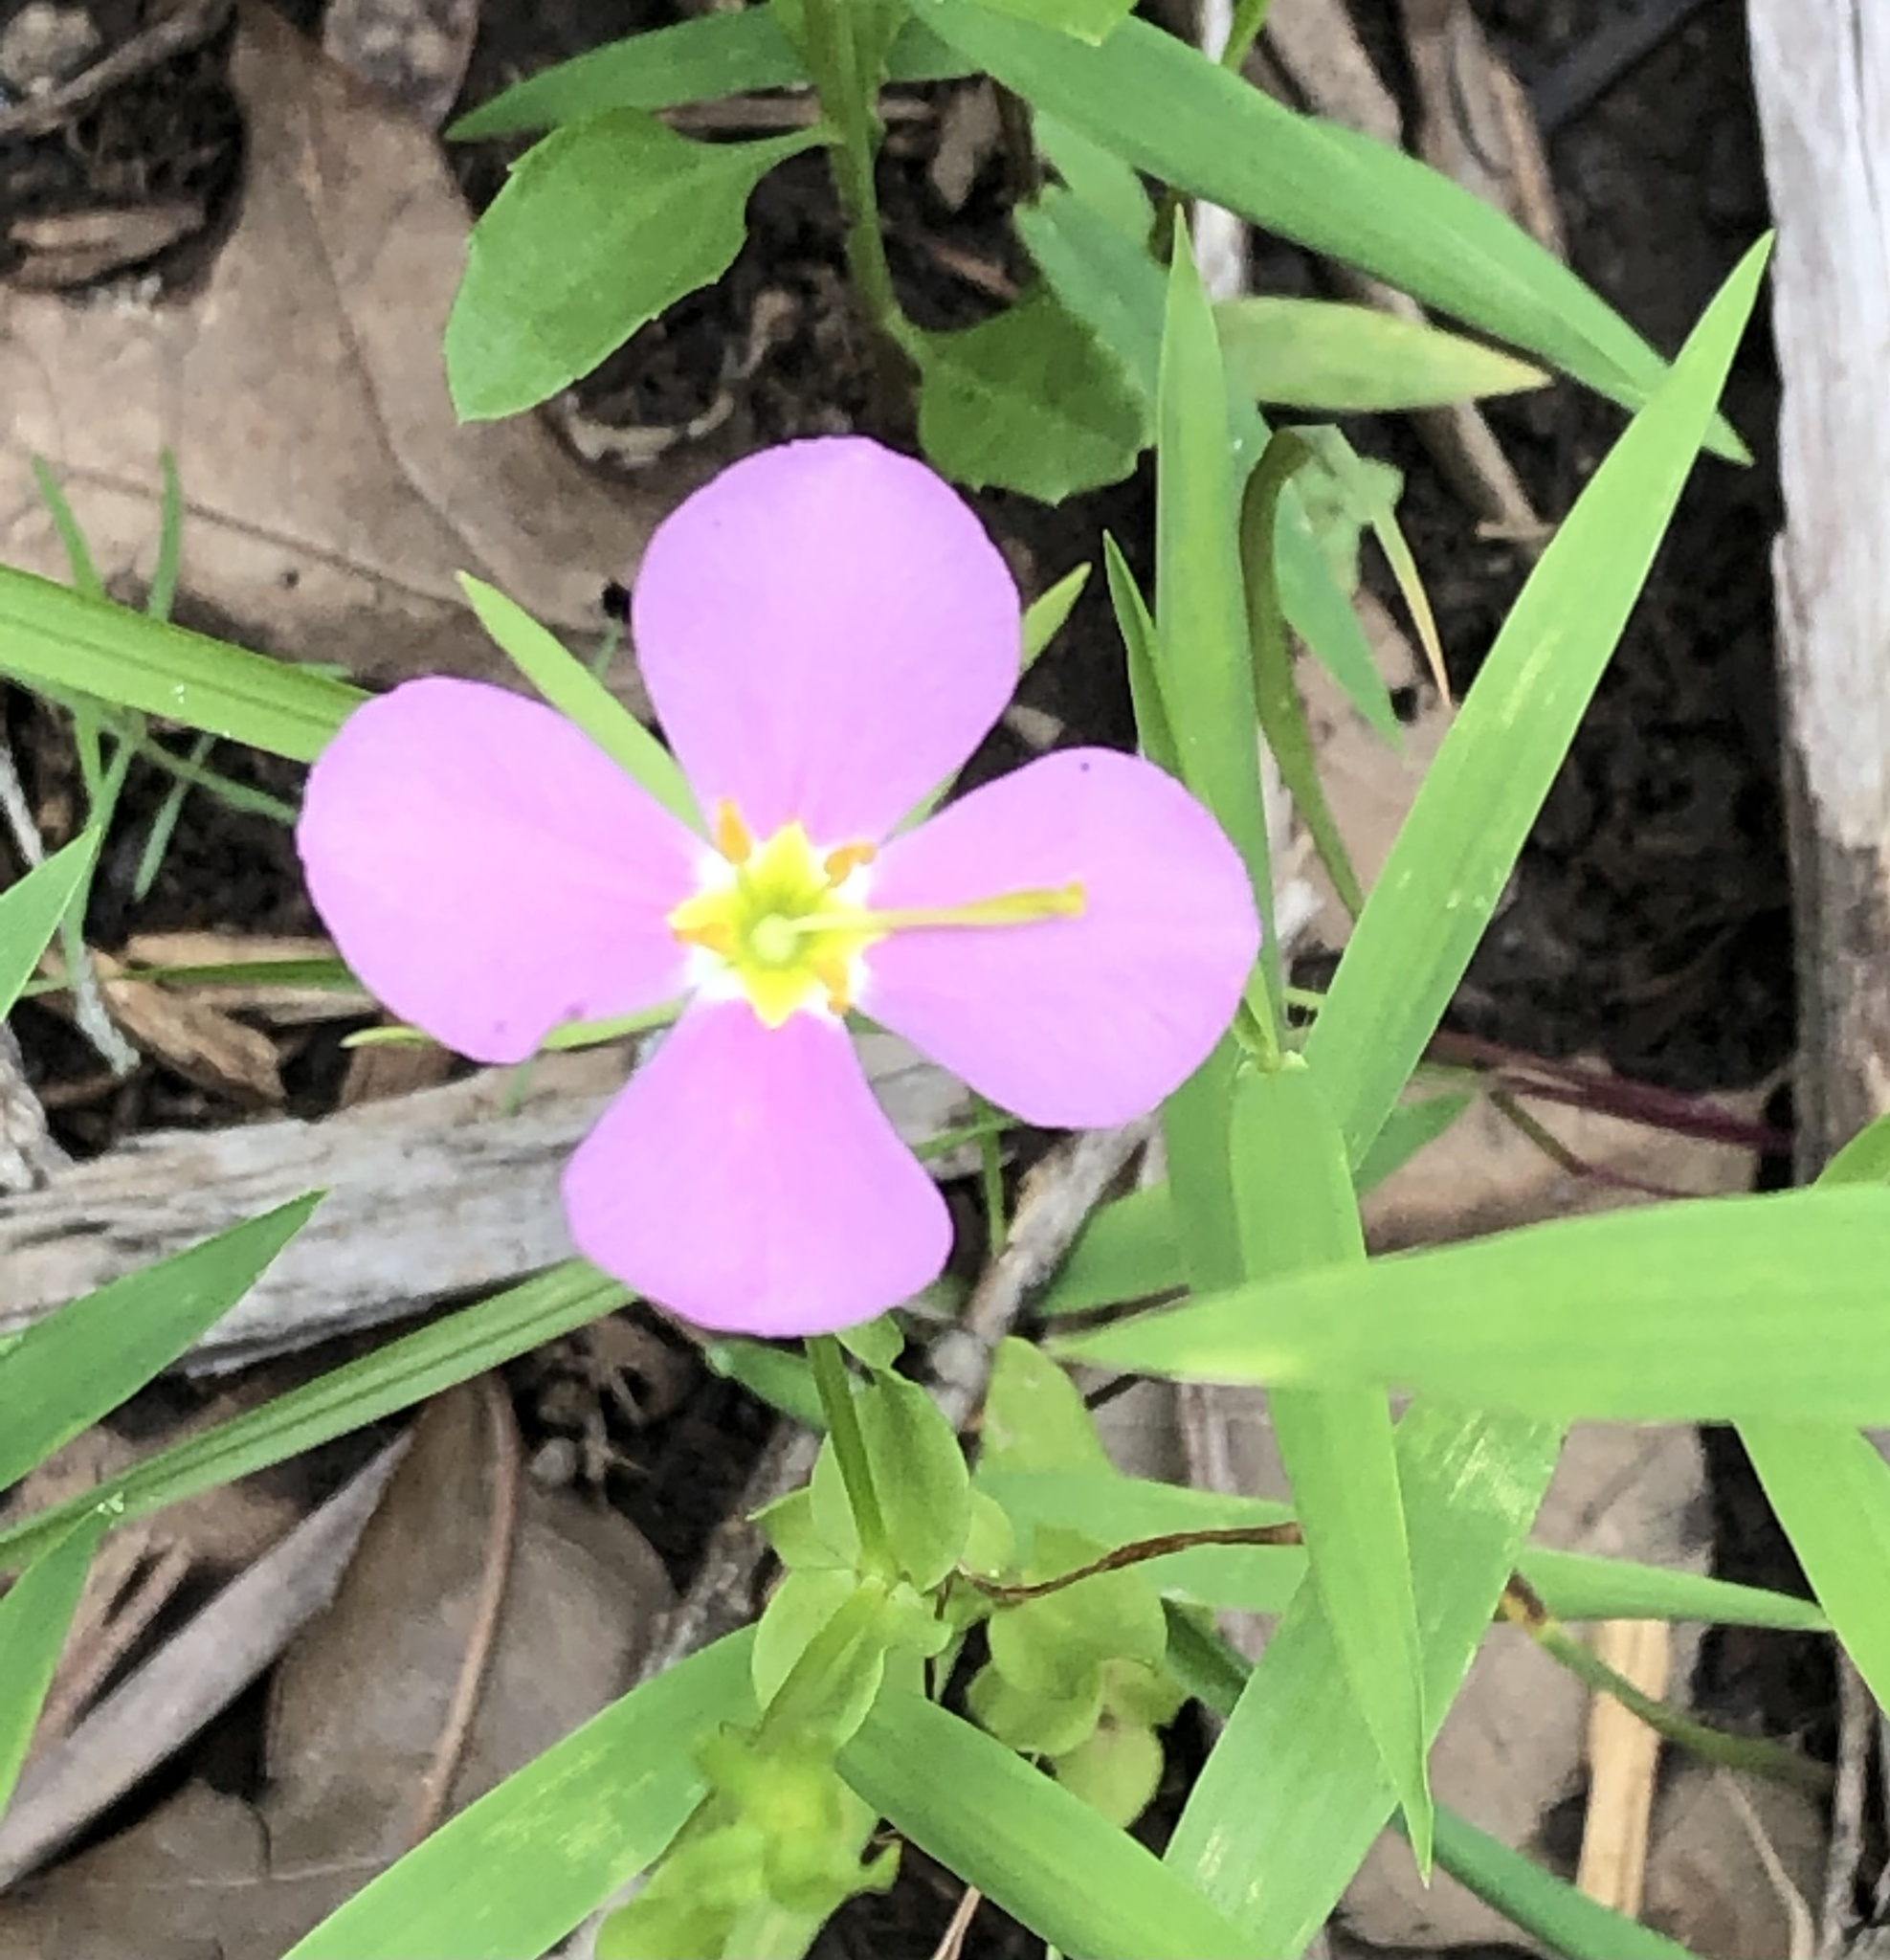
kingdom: Plantae
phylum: Tracheophyta
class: Magnoliopsida
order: Gentianales
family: Gentianaceae
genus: Sabatia
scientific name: Sabatia campestris
